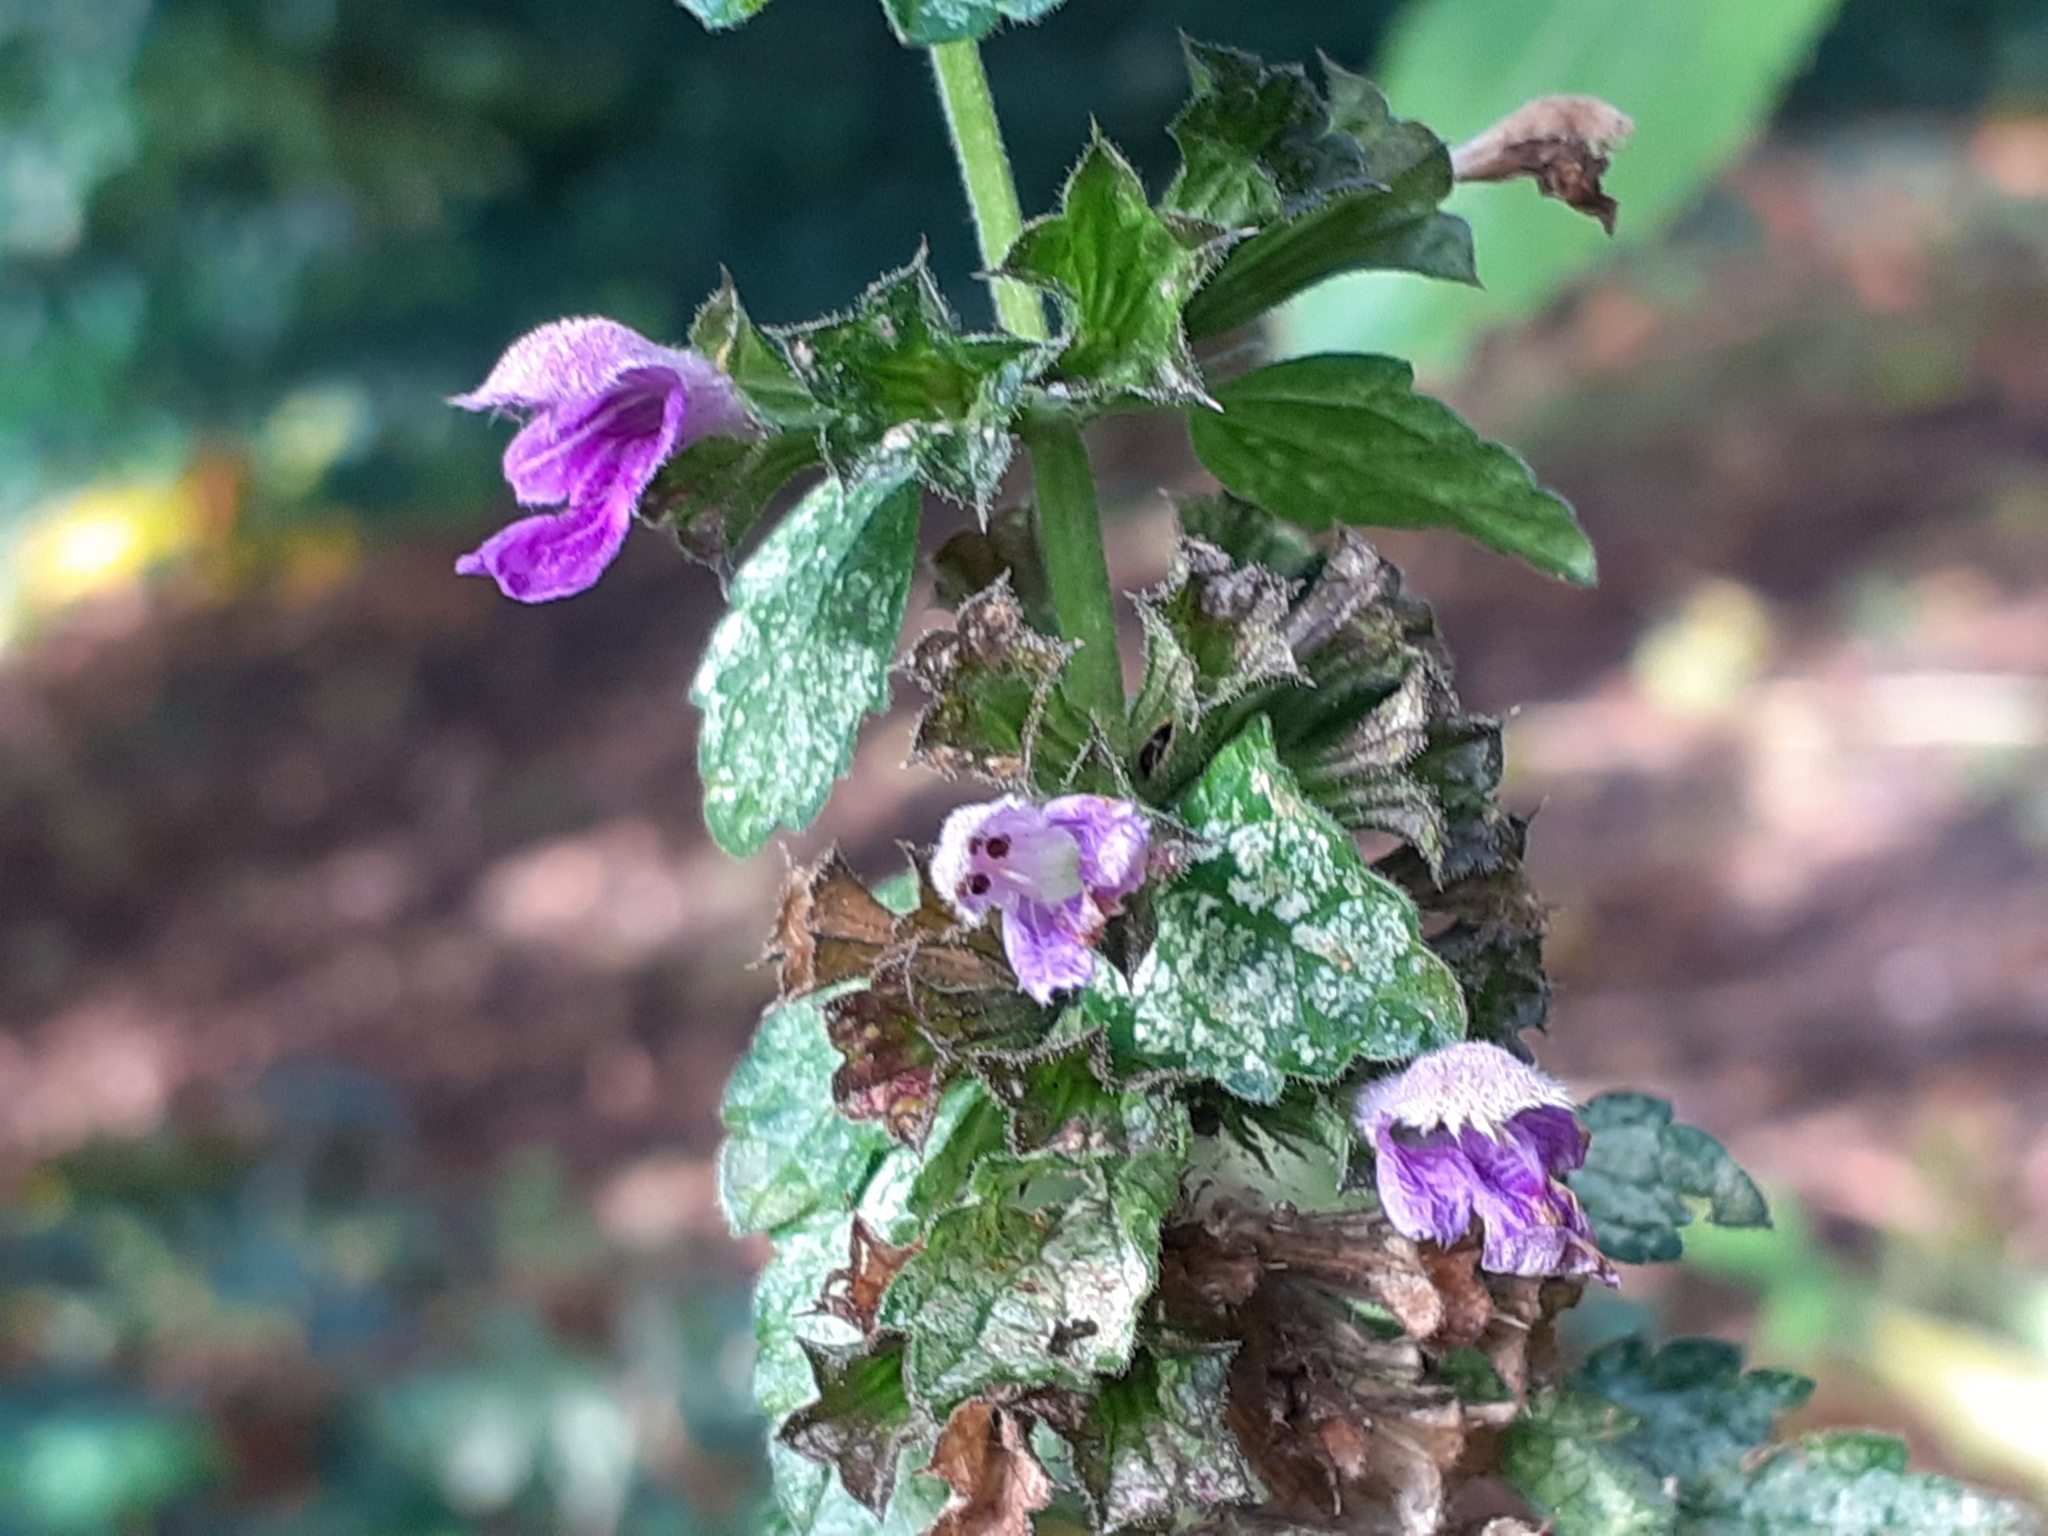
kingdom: Plantae
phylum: Tracheophyta
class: Magnoliopsida
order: Lamiales
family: Lamiaceae
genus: Ballota
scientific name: Ballota nigra
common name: Black horehound
